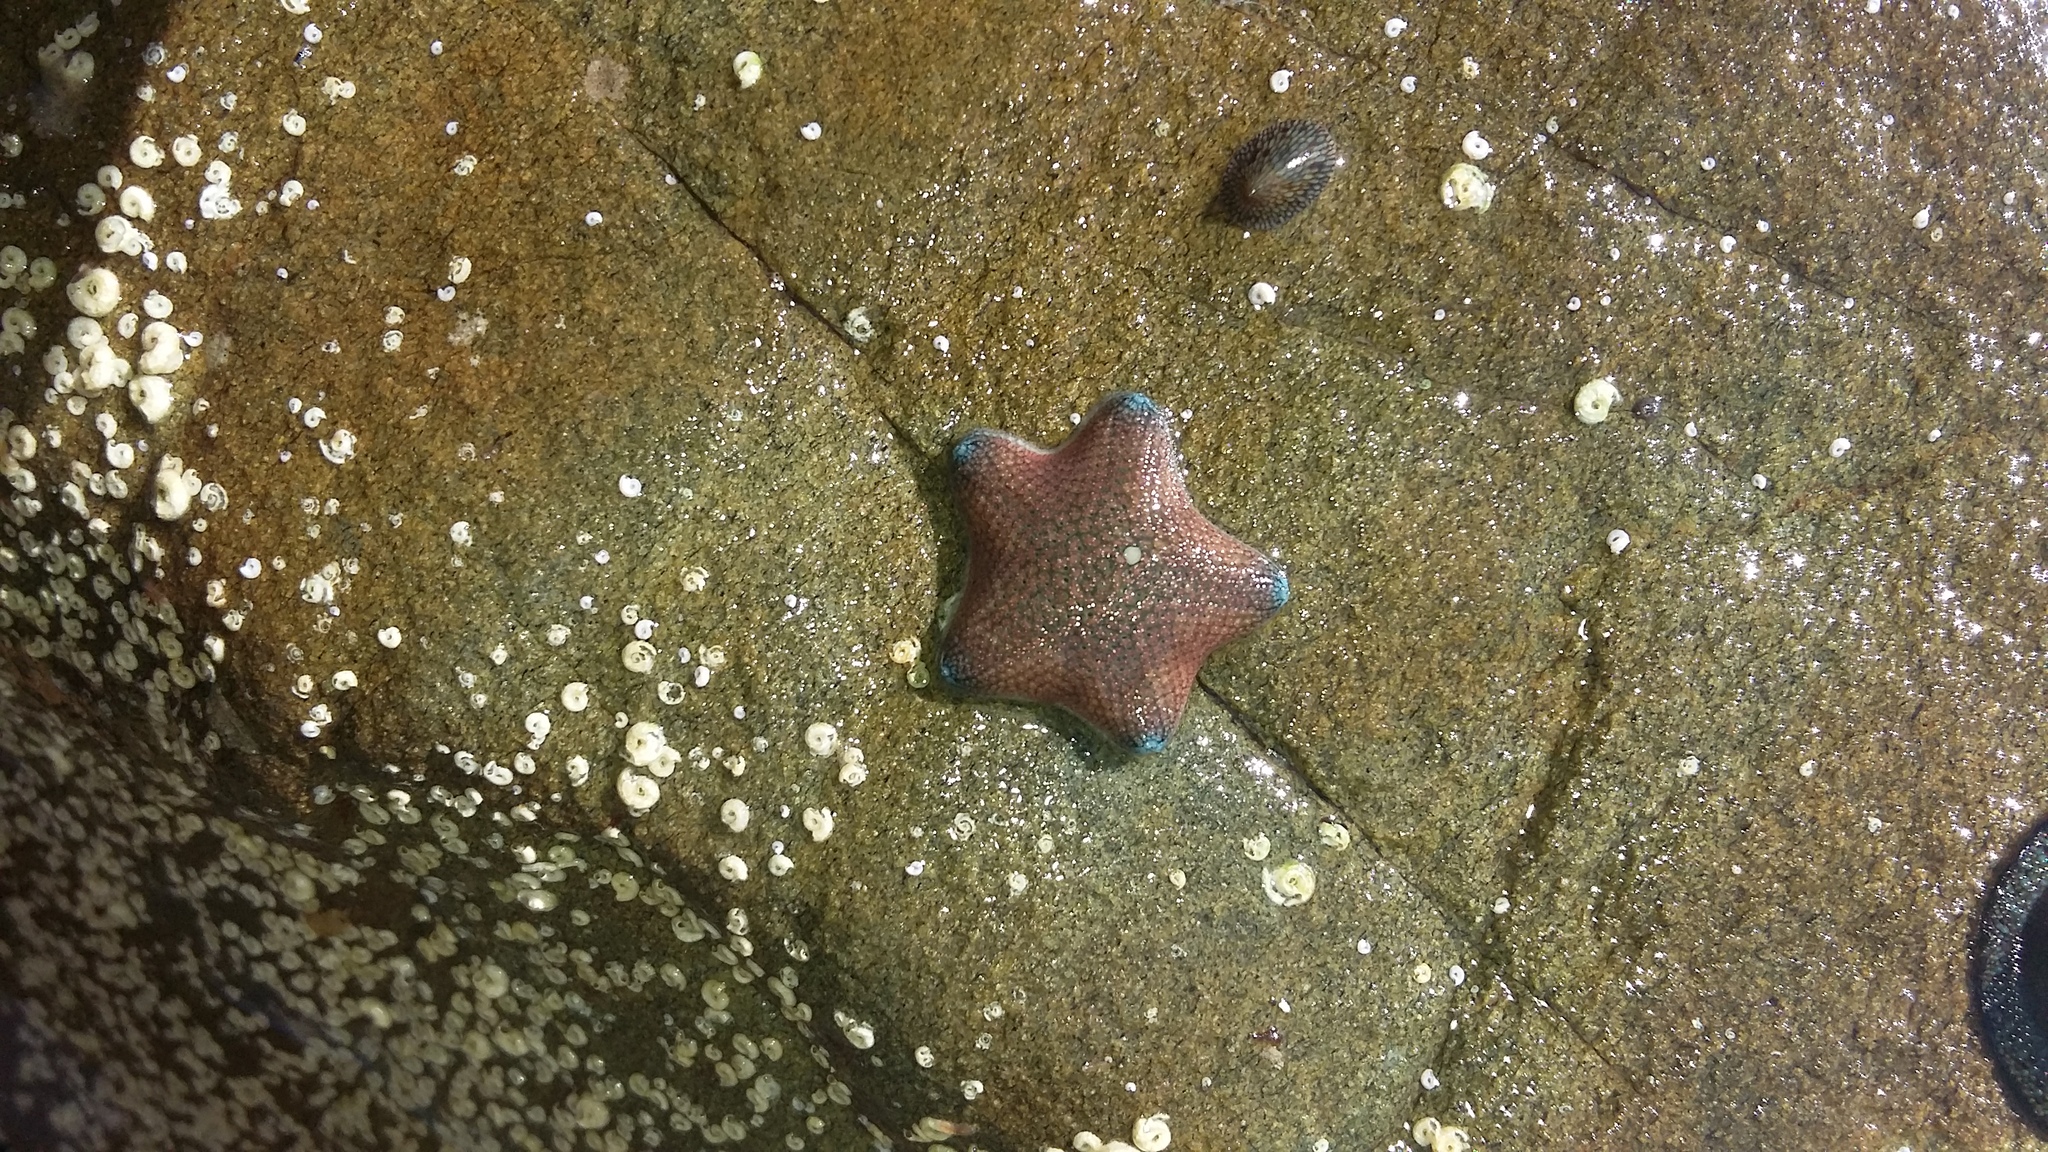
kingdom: Animalia
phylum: Echinodermata
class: Asteroidea
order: Valvatida
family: Asterinidae
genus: Patiriella
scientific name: Patiriella regularis
